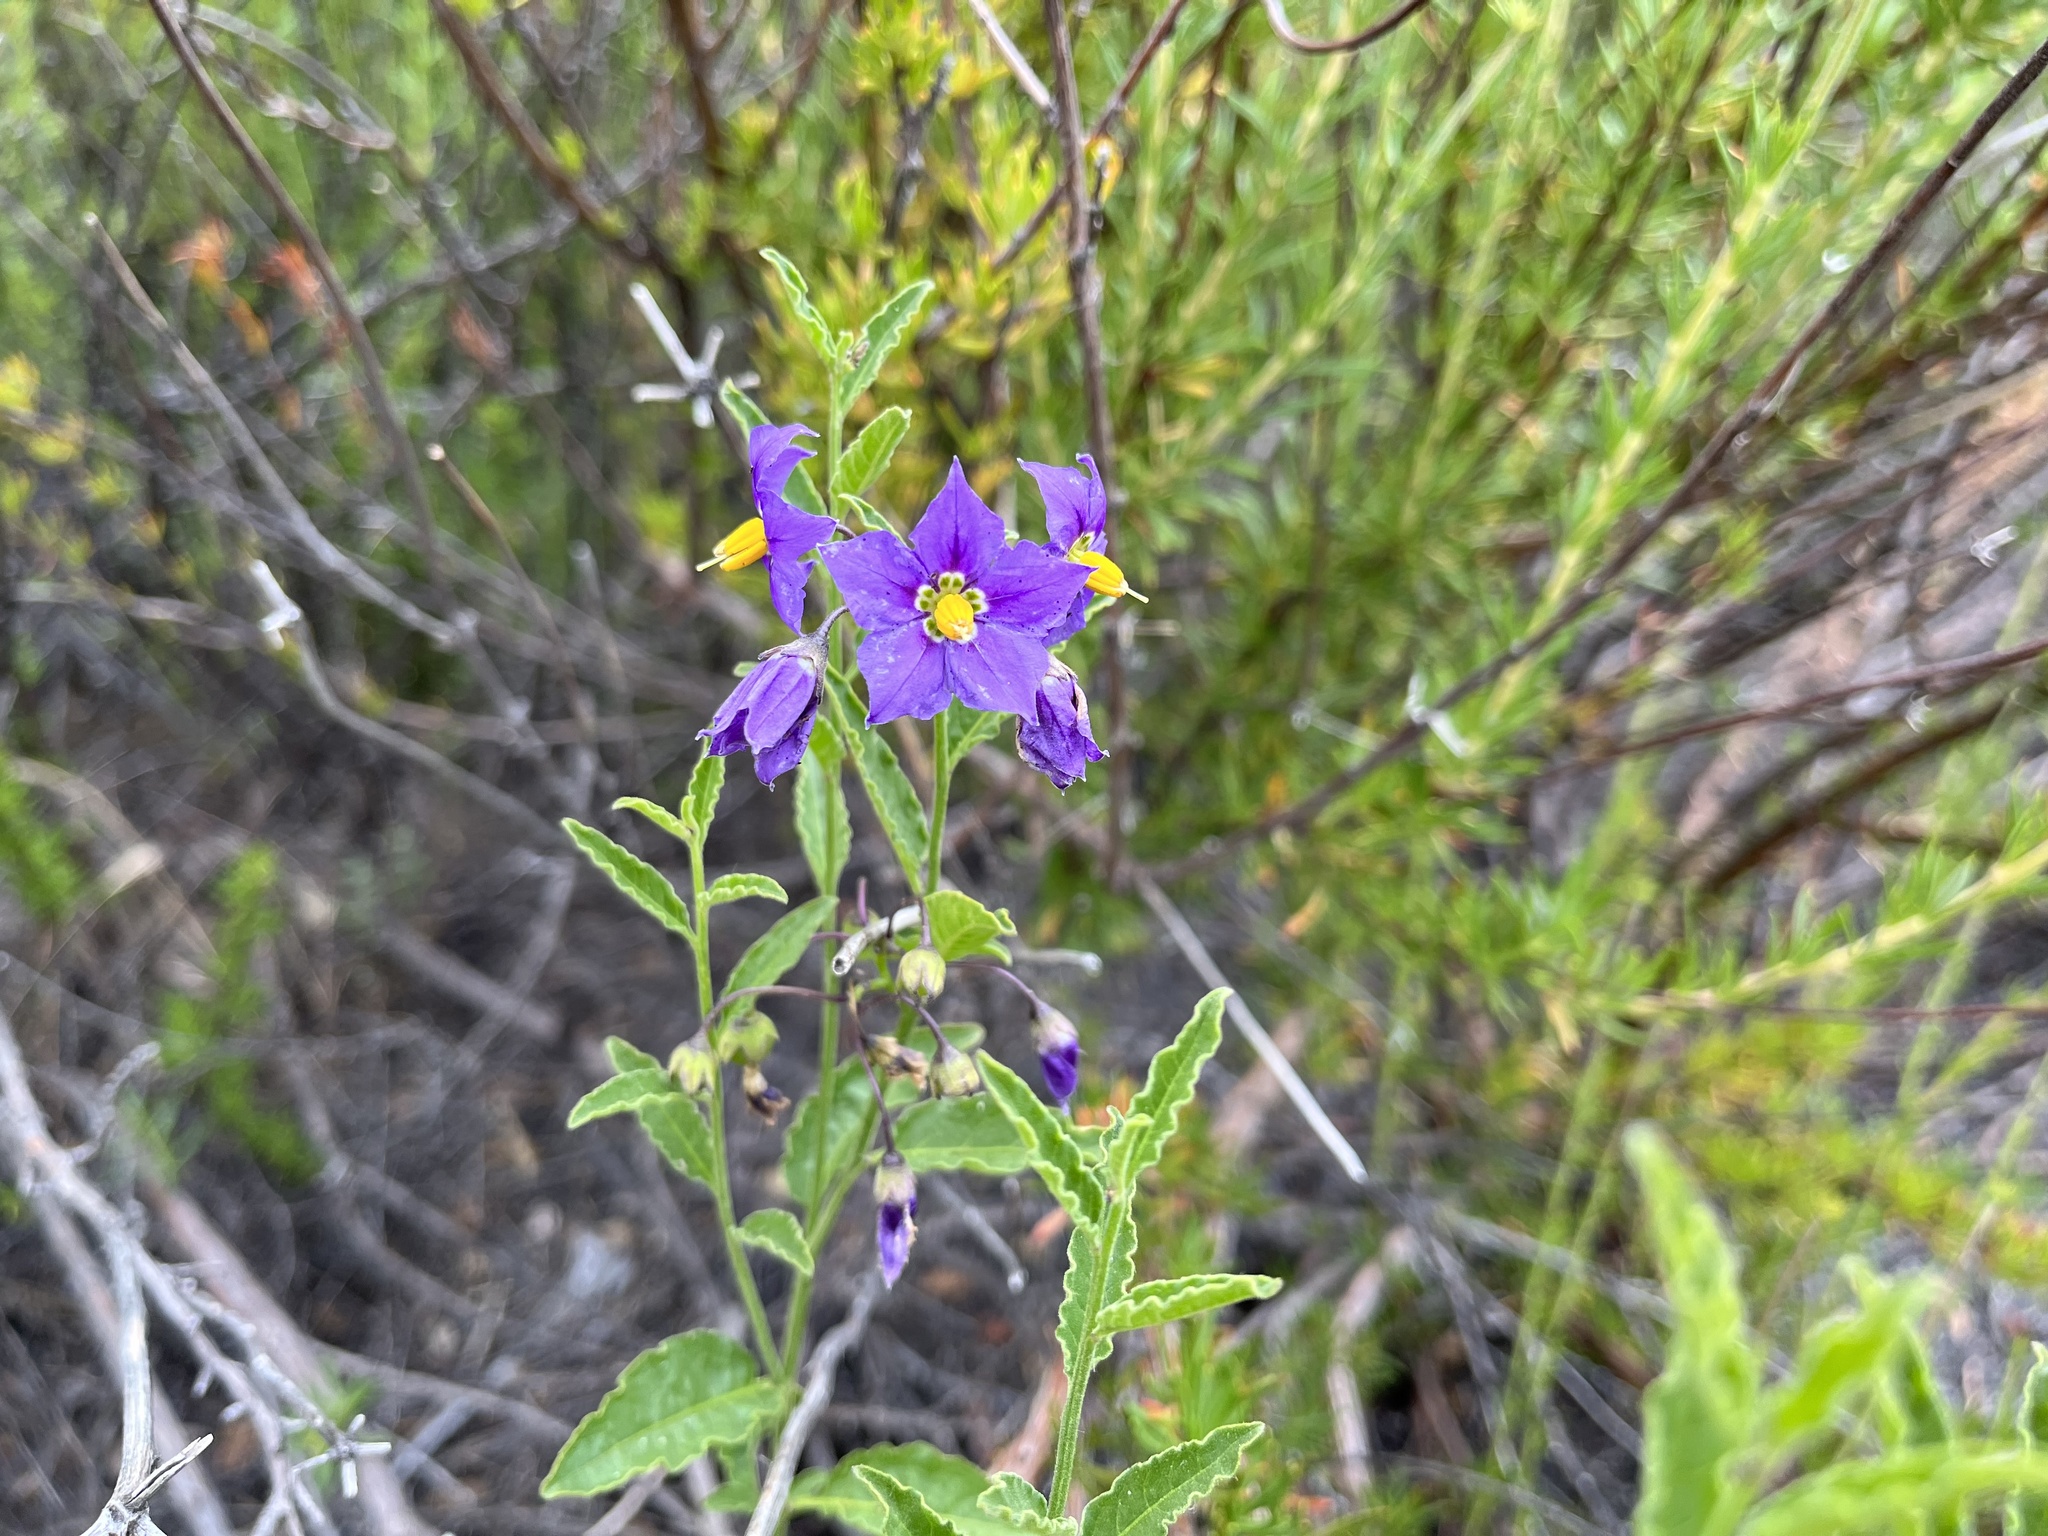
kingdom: Plantae
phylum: Tracheophyta
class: Magnoliopsida
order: Solanales
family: Solanaceae
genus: Solanum
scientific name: Solanum umbelliferum
